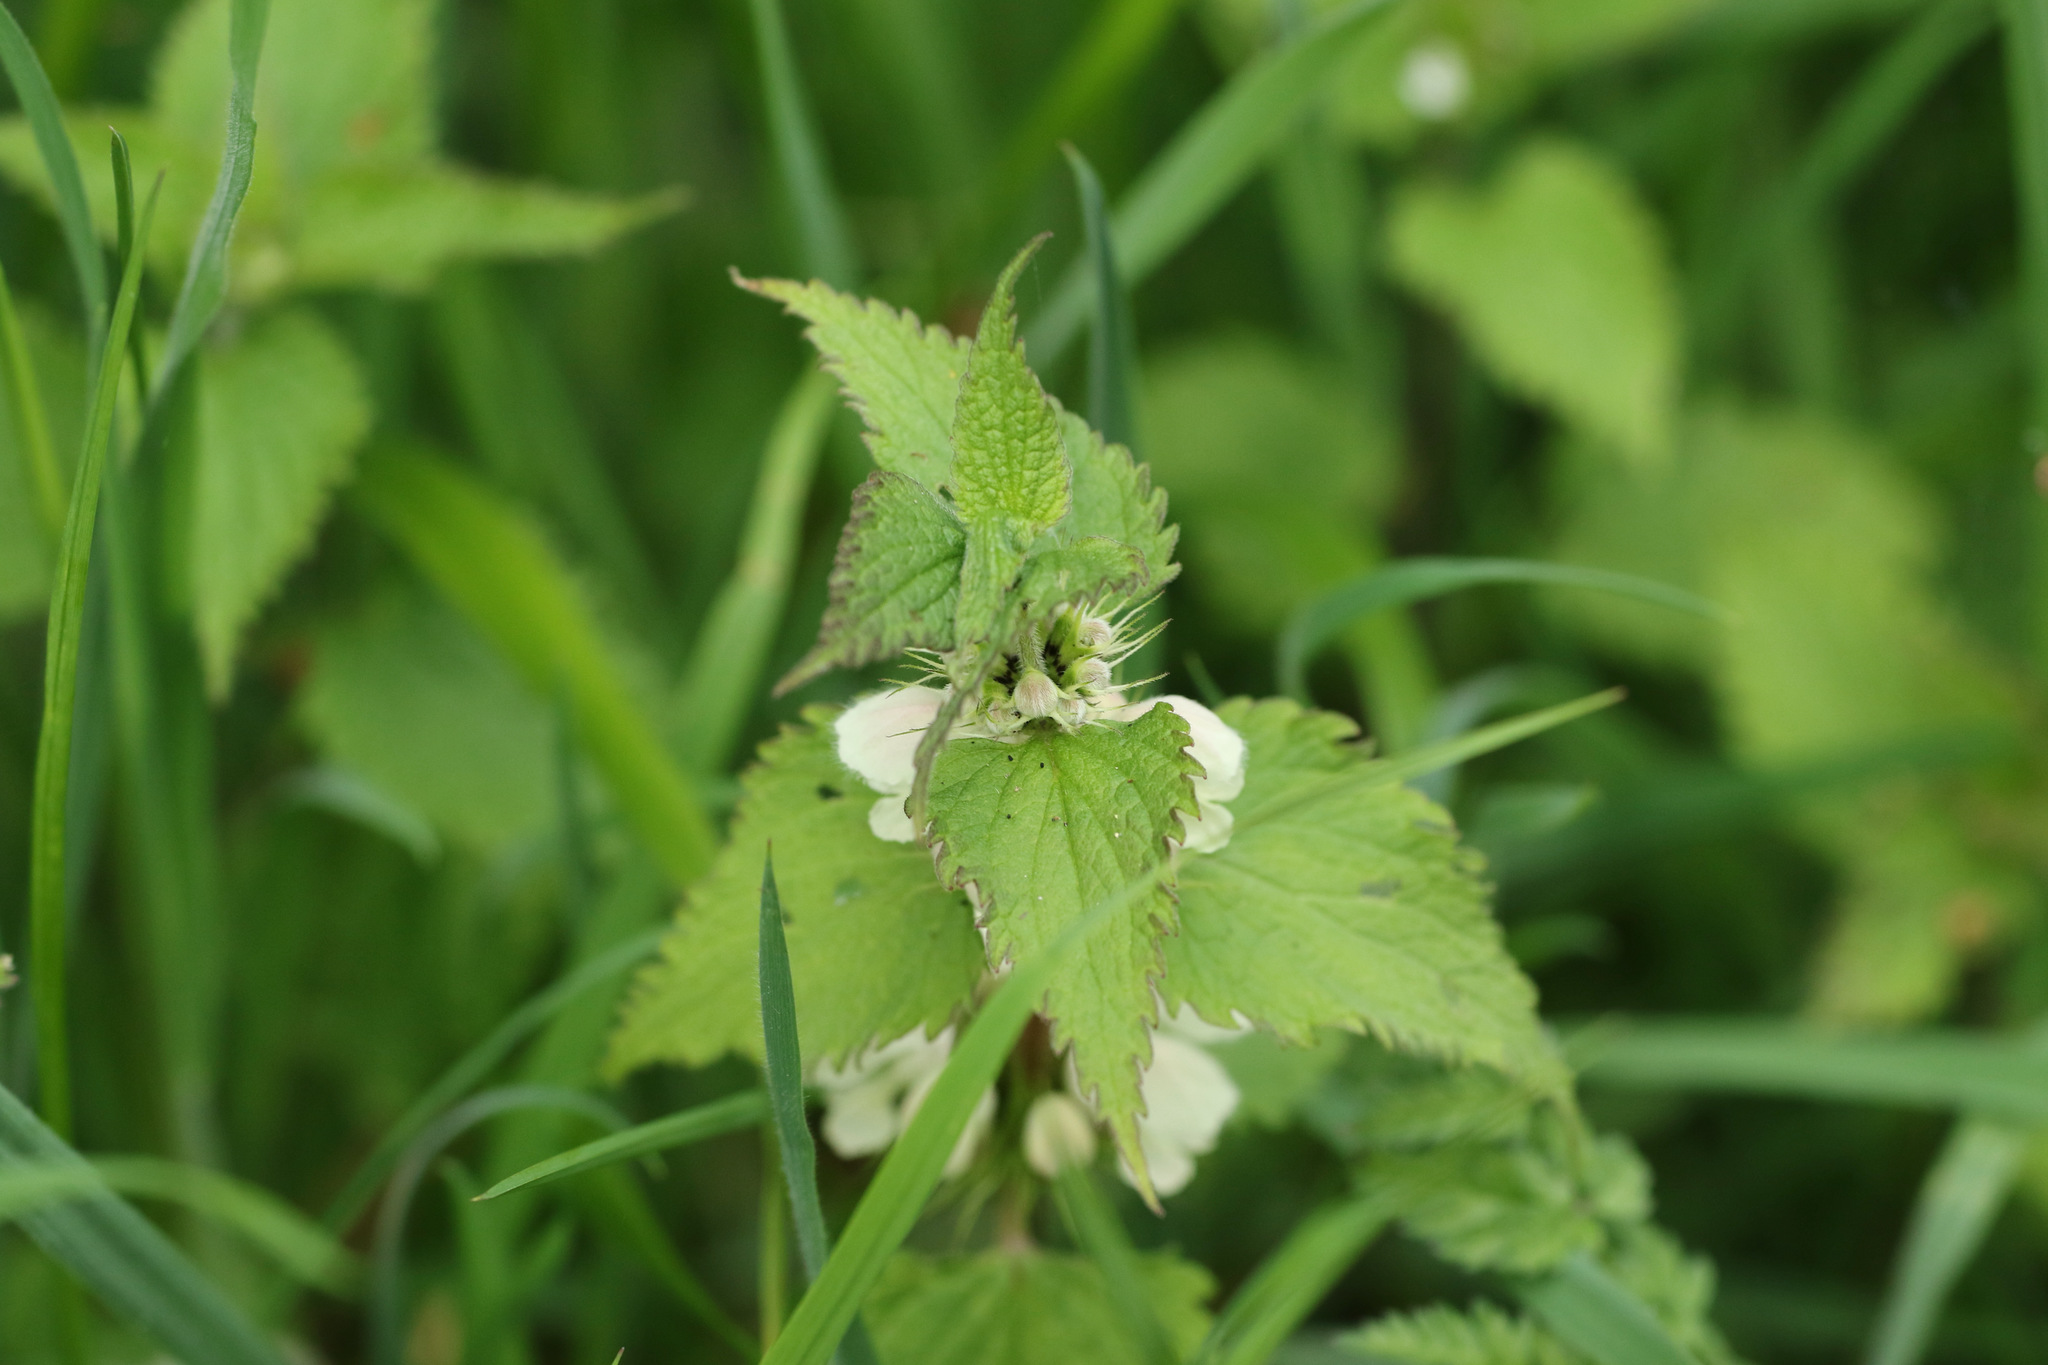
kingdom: Plantae
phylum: Tracheophyta
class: Magnoliopsida
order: Lamiales
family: Lamiaceae
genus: Lamium
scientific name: Lamium album
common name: White dead-nettle
